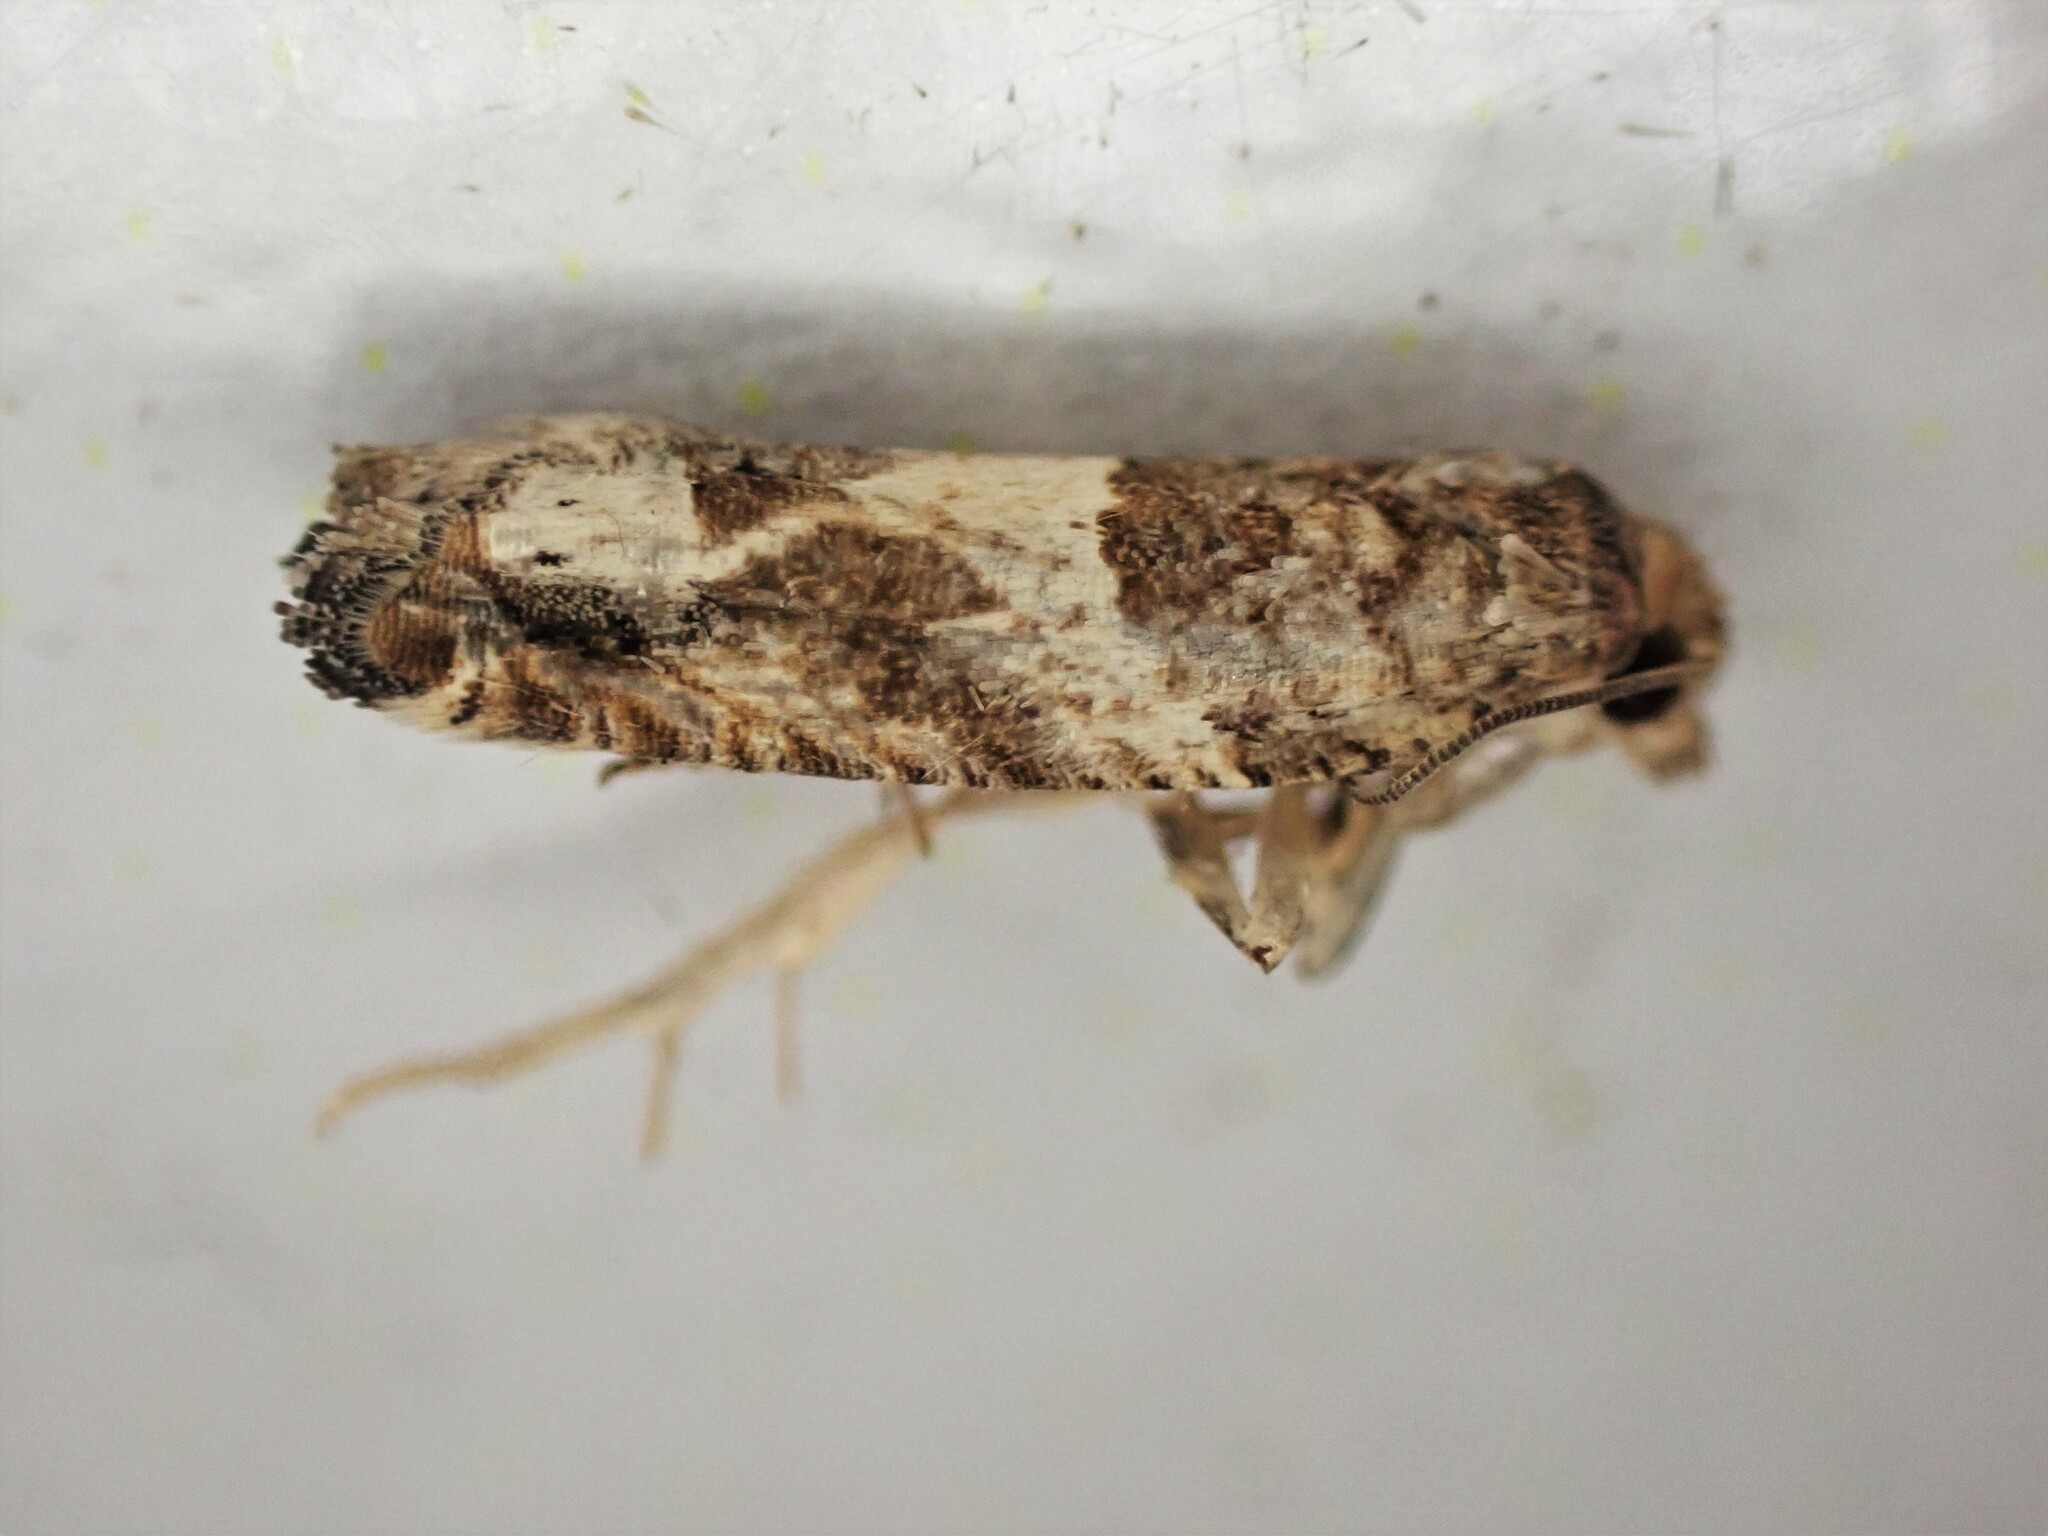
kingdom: Animalia
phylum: Arthropoda
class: Insecta
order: Lepidoptera
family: Tortricidae
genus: Crocidosema
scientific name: Crocidosema plebejana
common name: Southern bell
